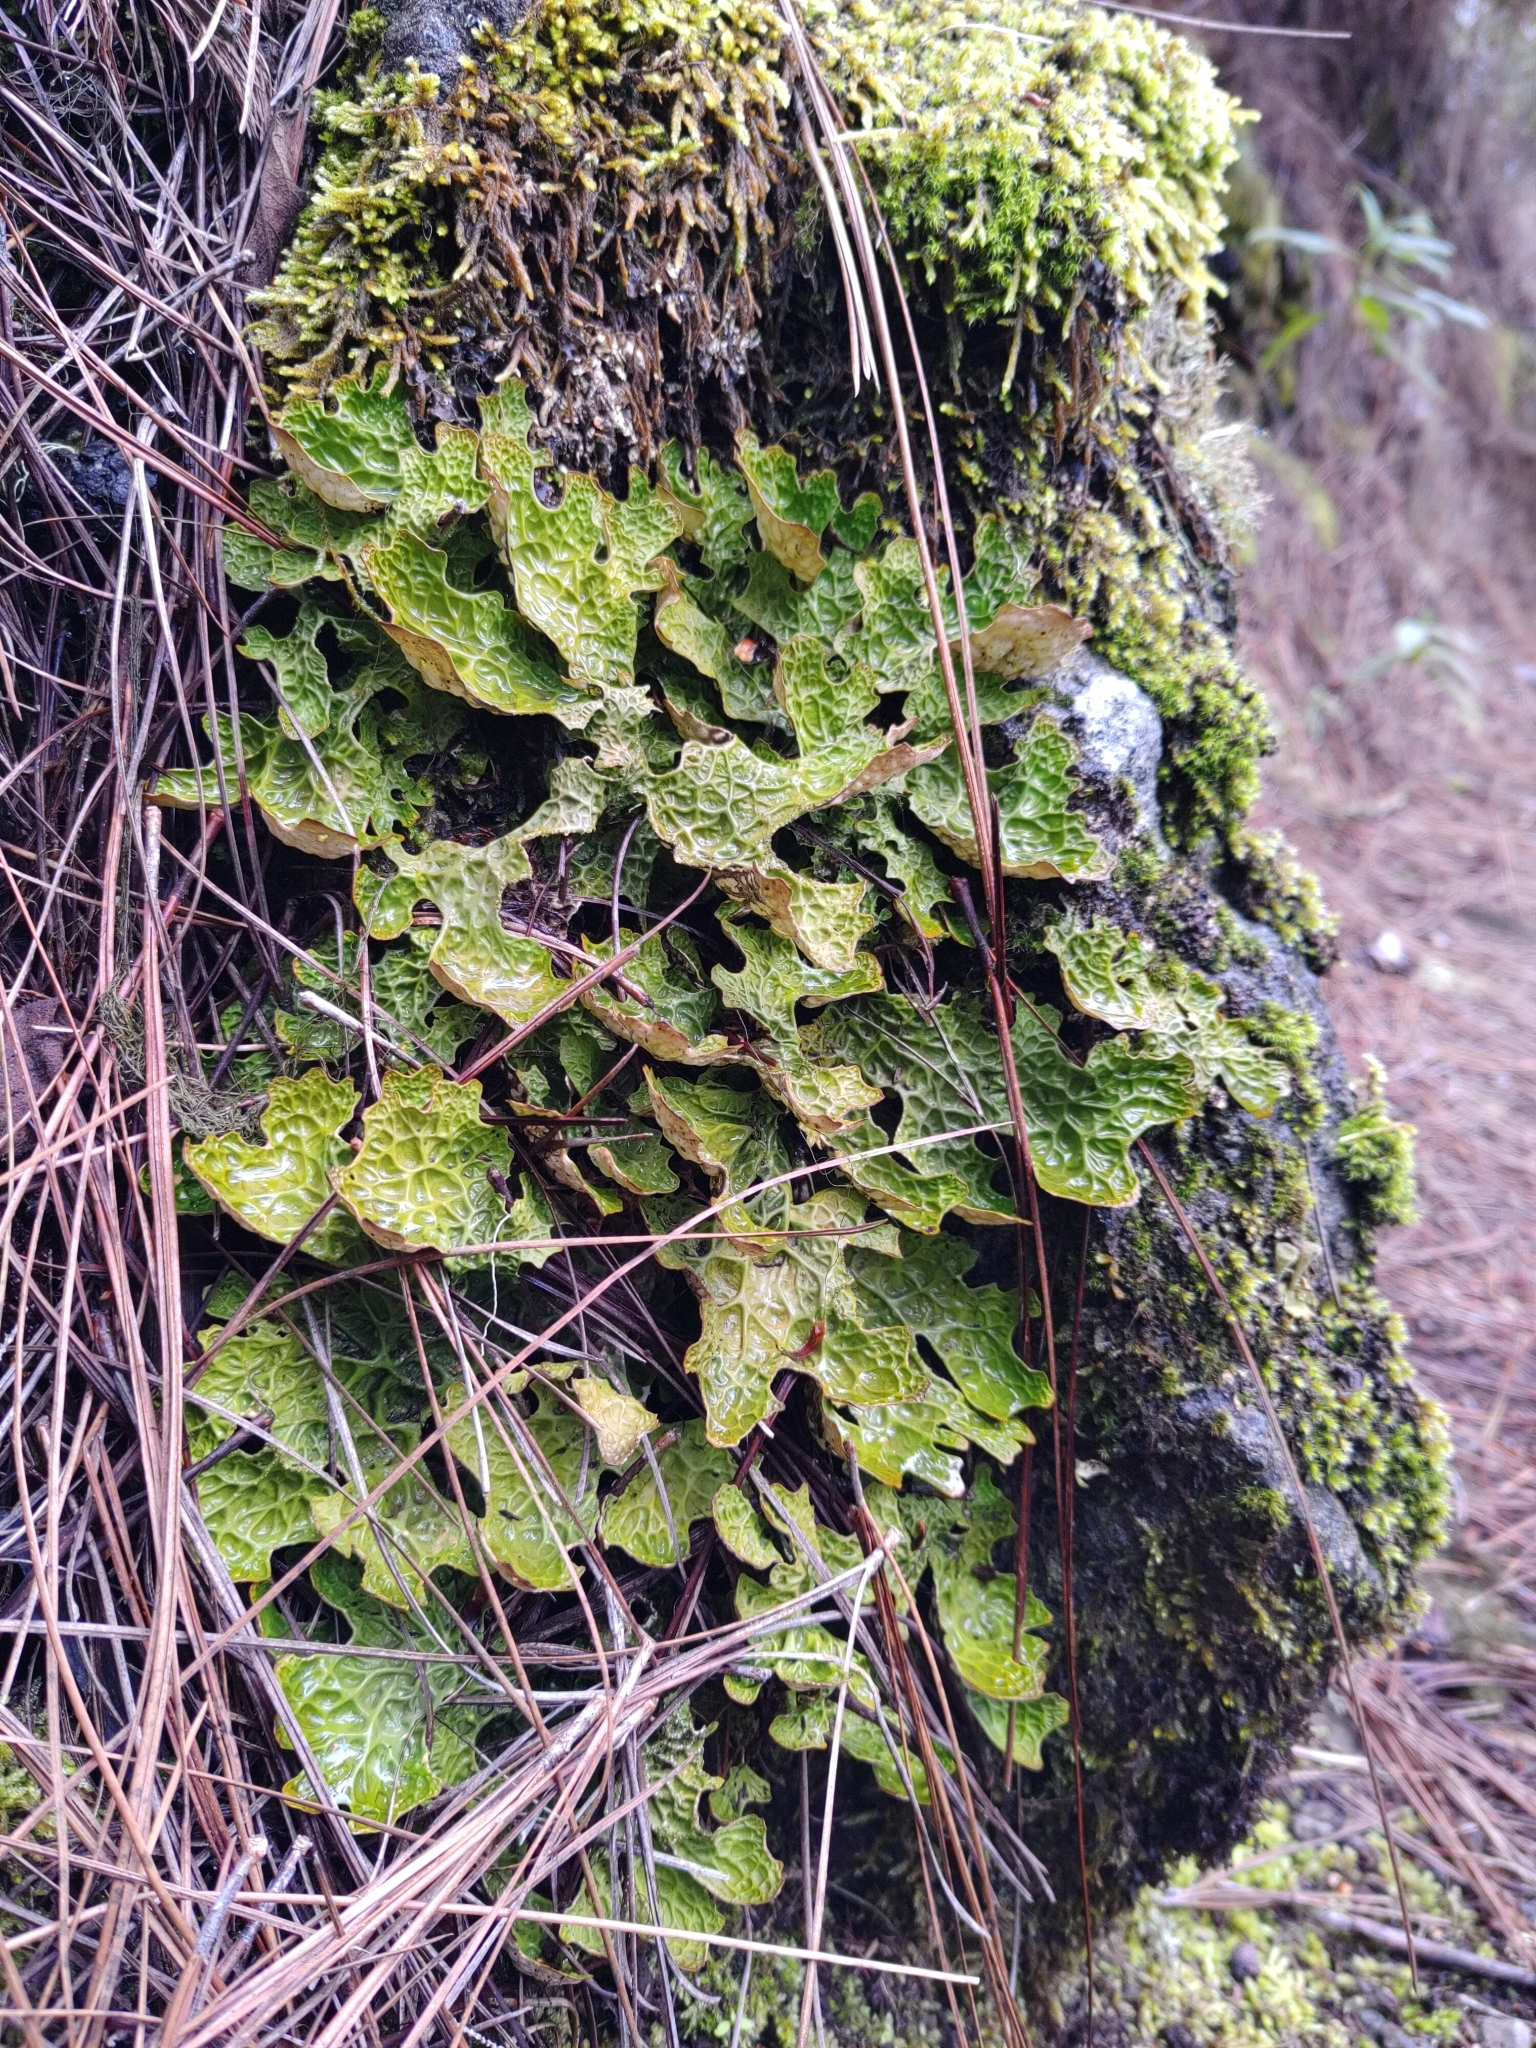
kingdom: Fungi
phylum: Ascomycota
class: Lecanoromycetes
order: Peltigerales
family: Lobariaceae
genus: Lobaria
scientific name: Lobaria pulmonaria
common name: Lungwort
